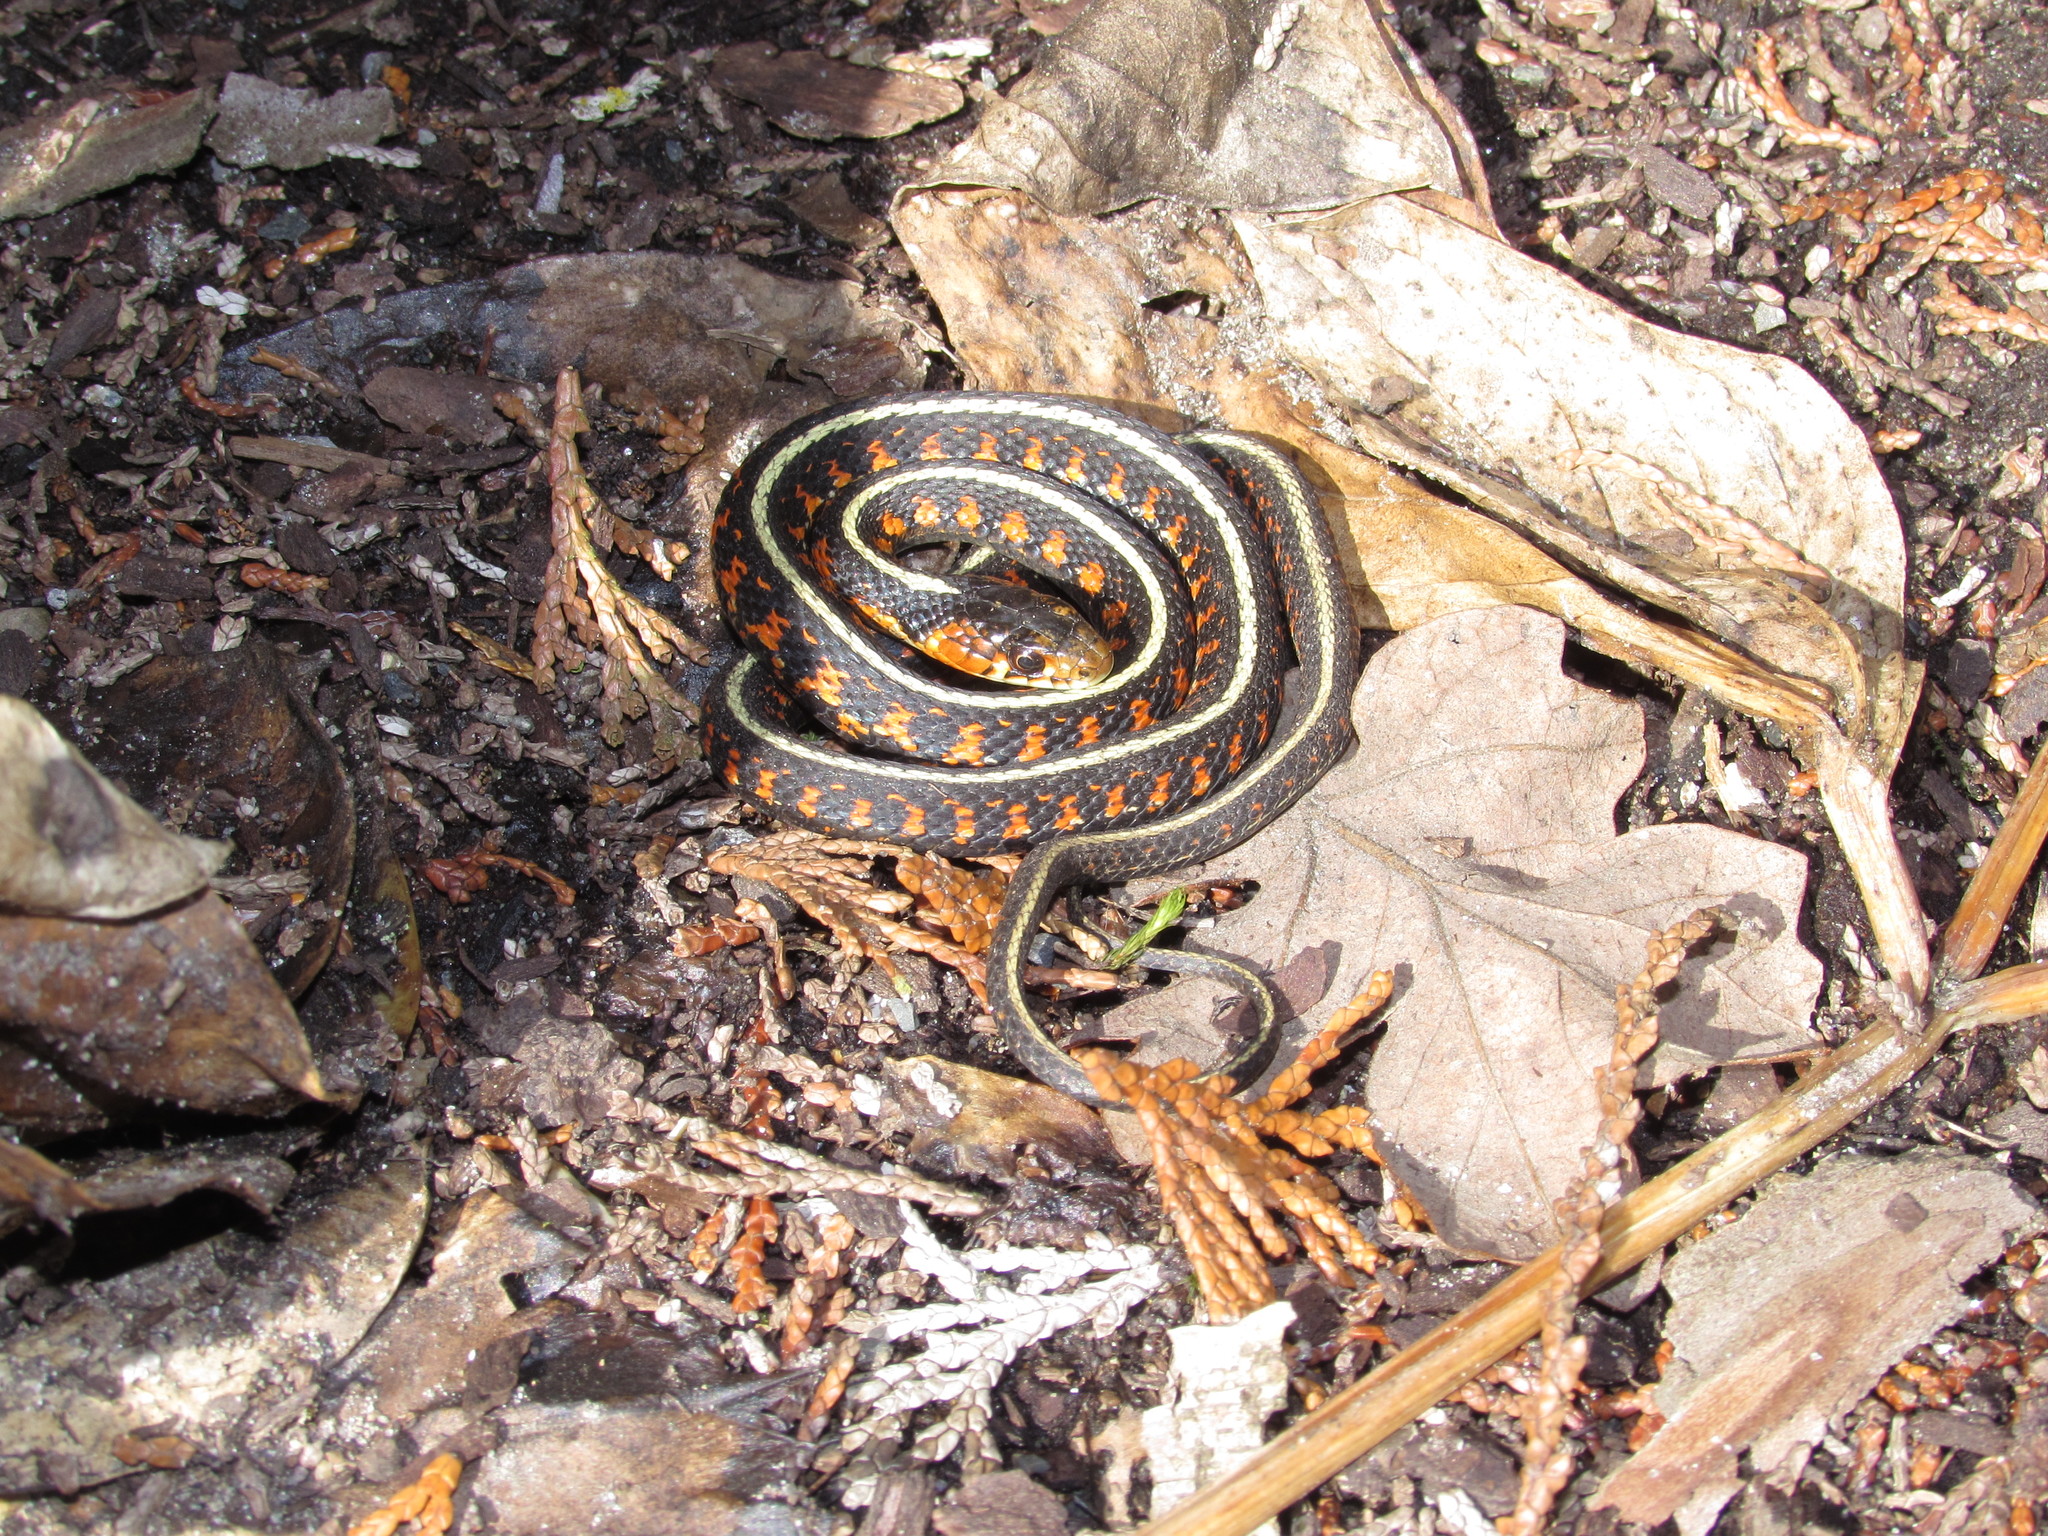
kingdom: Animalia
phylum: Chordata
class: Squamata
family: Colubridae
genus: Thamnophis
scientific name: Thamnophis sirtalis
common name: Common garter snake
